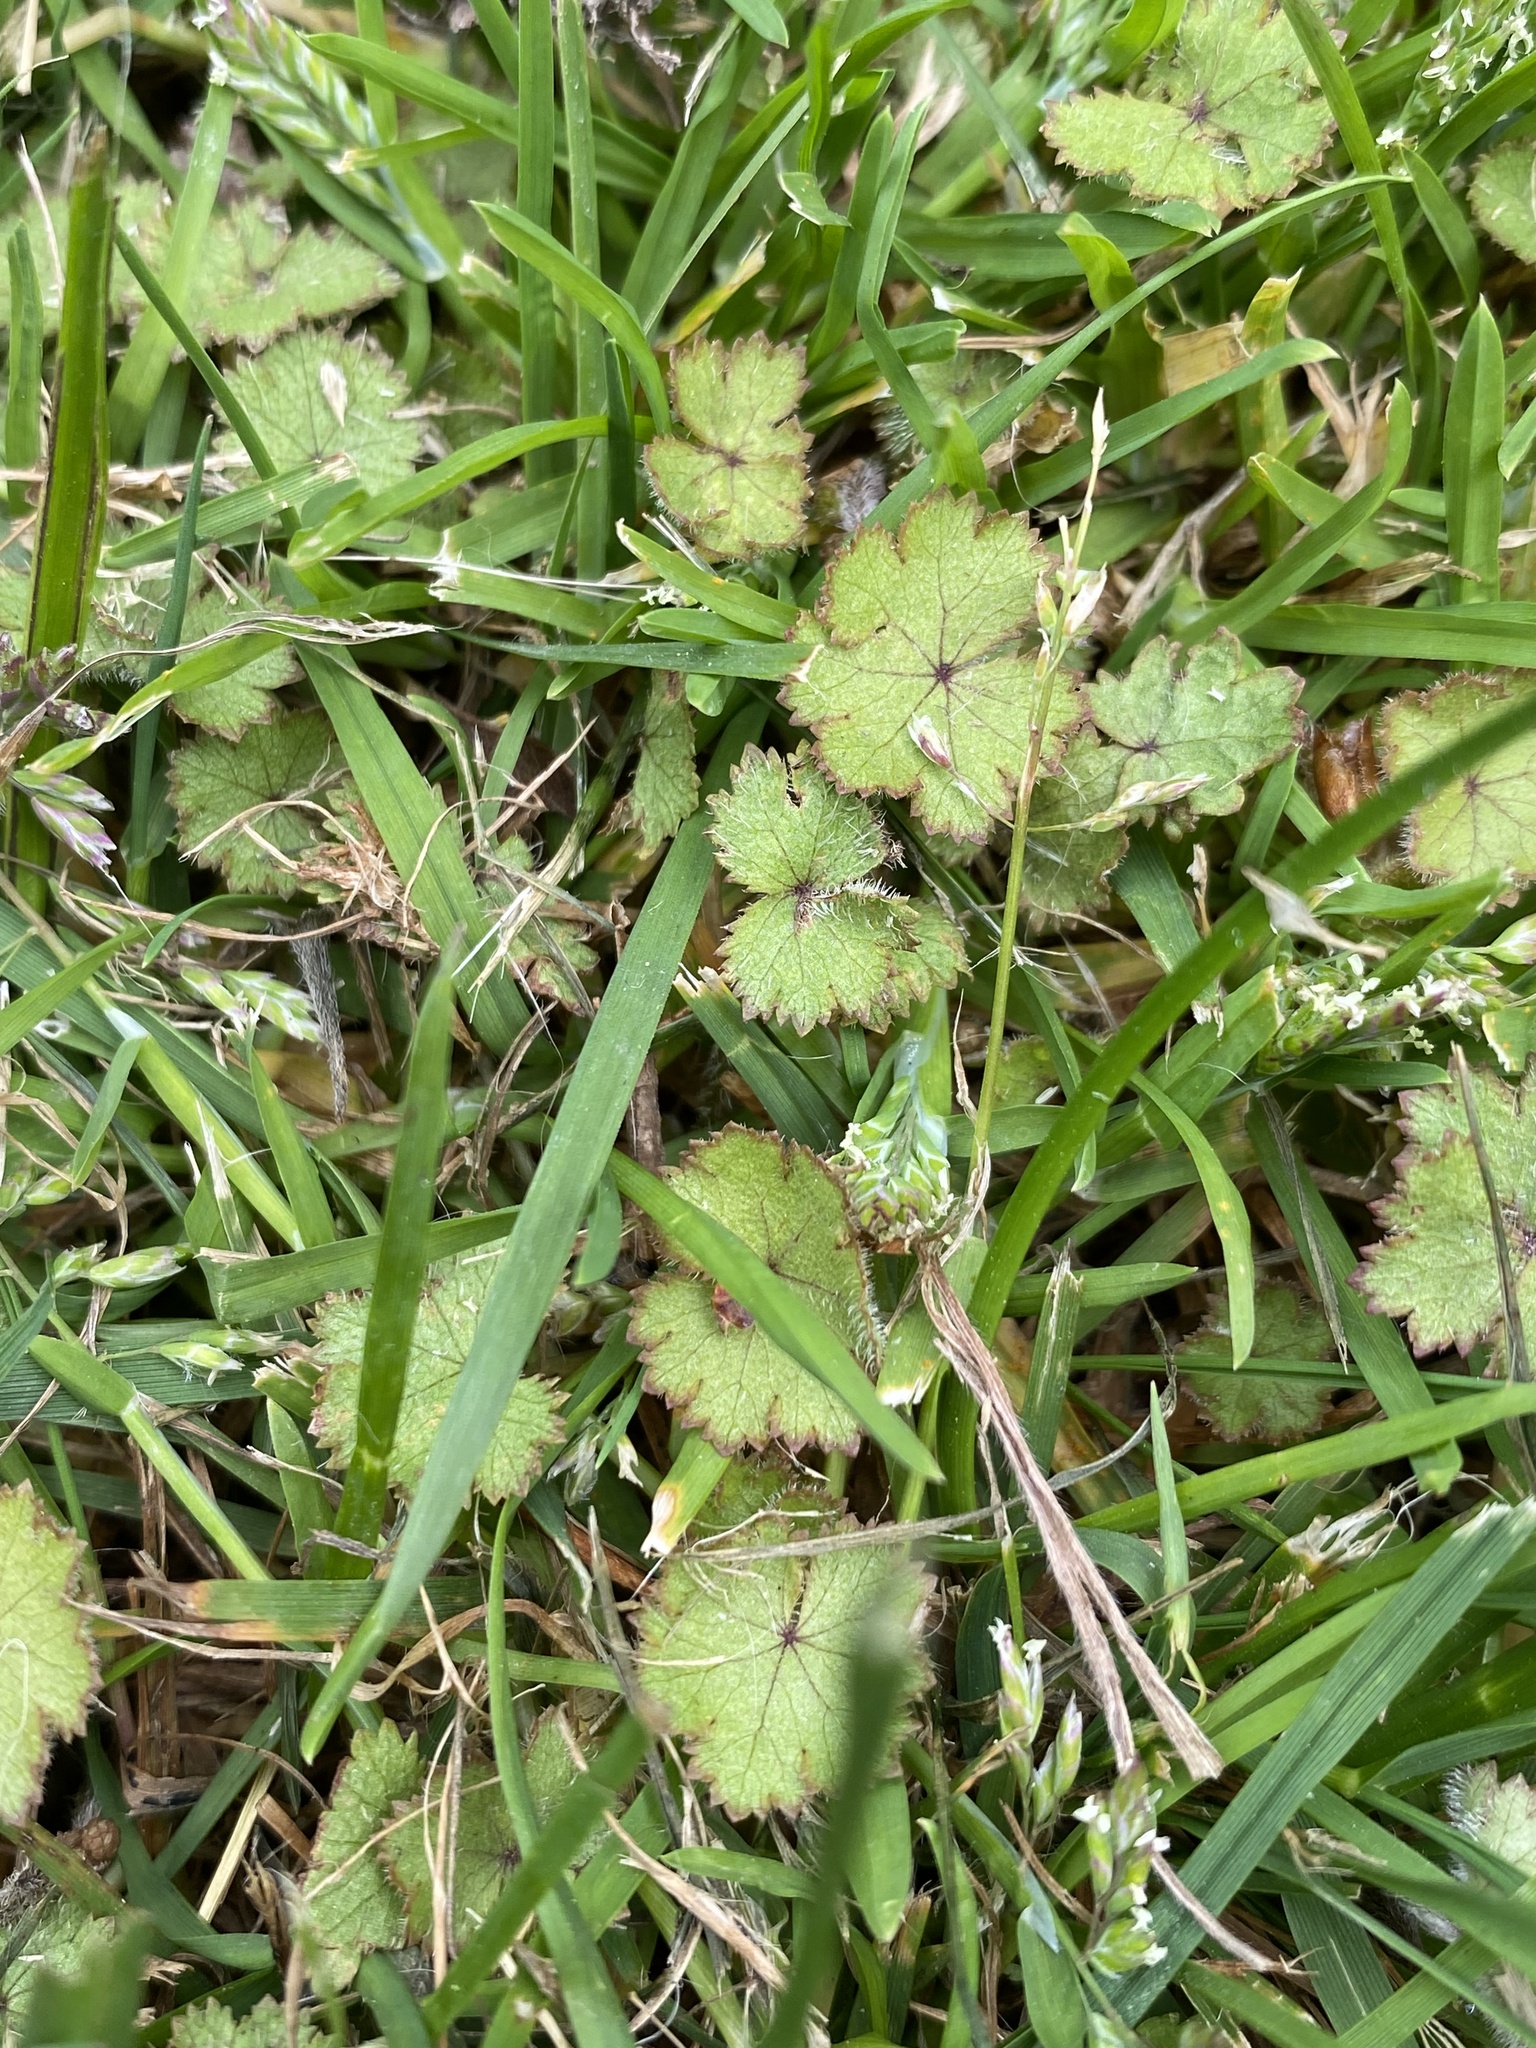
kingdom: Plantae
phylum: Tracheophyta
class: Magnoliopsida
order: Apiales
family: Araliaceae
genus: Hydrocotyle
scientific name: Hydrocotyle moschata
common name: Hairy pennywort
